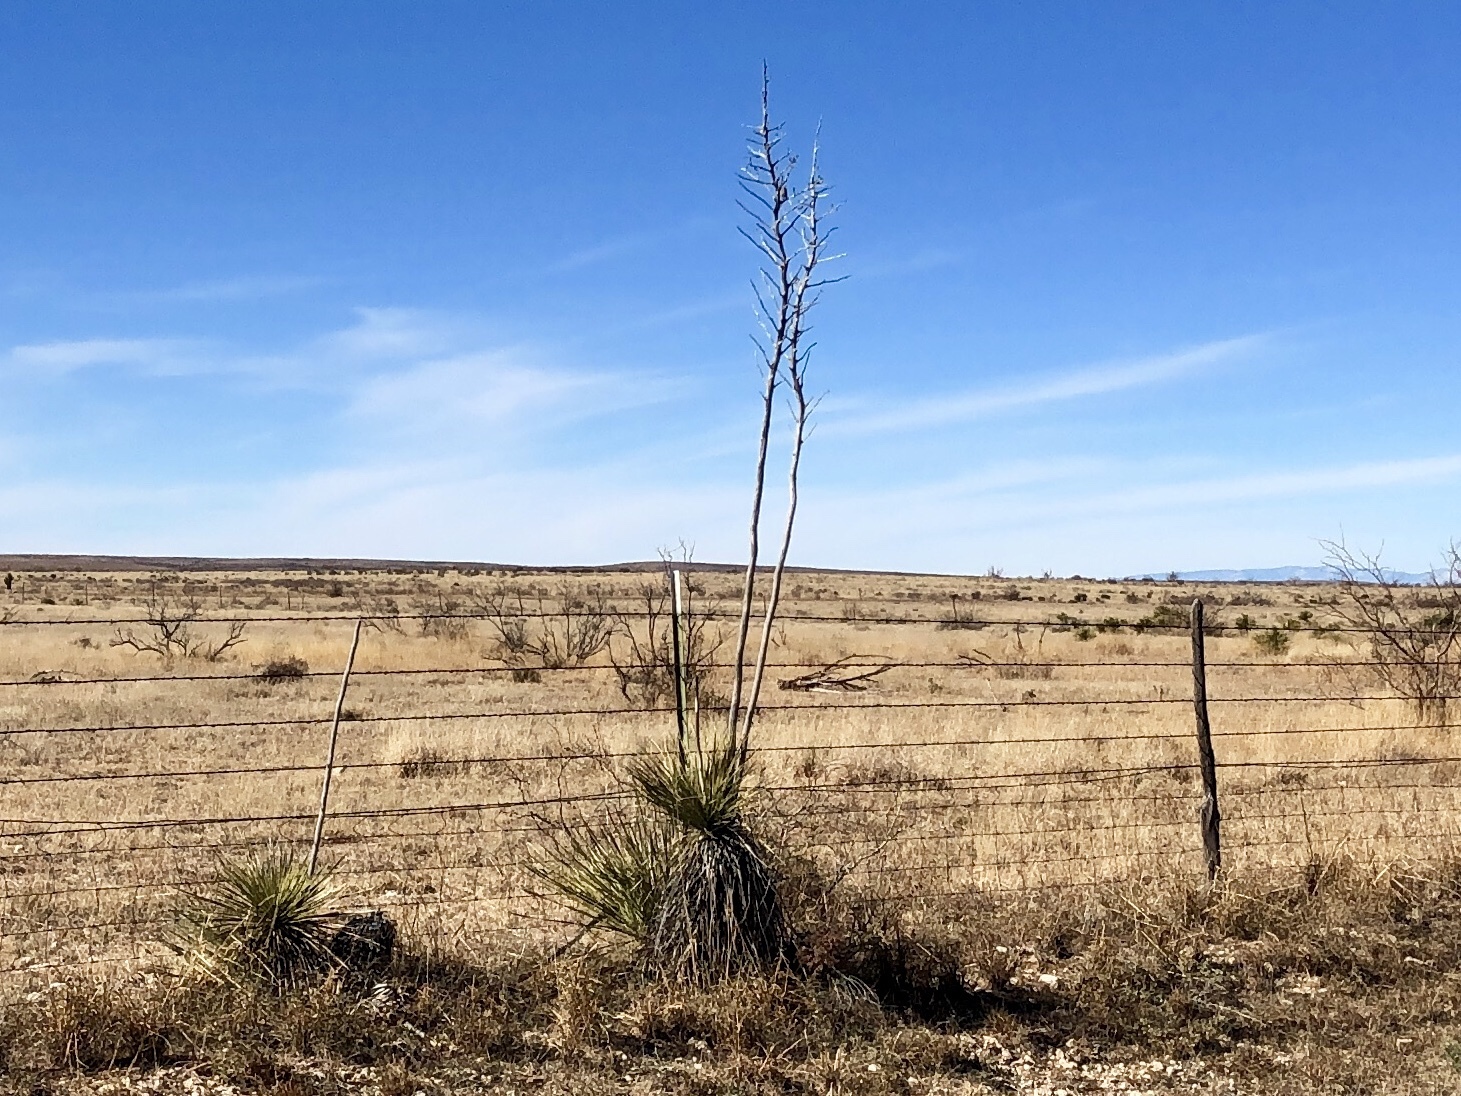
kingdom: Plantae
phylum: Tracheophyta
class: Liliopsida
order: Asparagales
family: Asparagaceae
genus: Yucca
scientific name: Yucca elata
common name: Palmella
